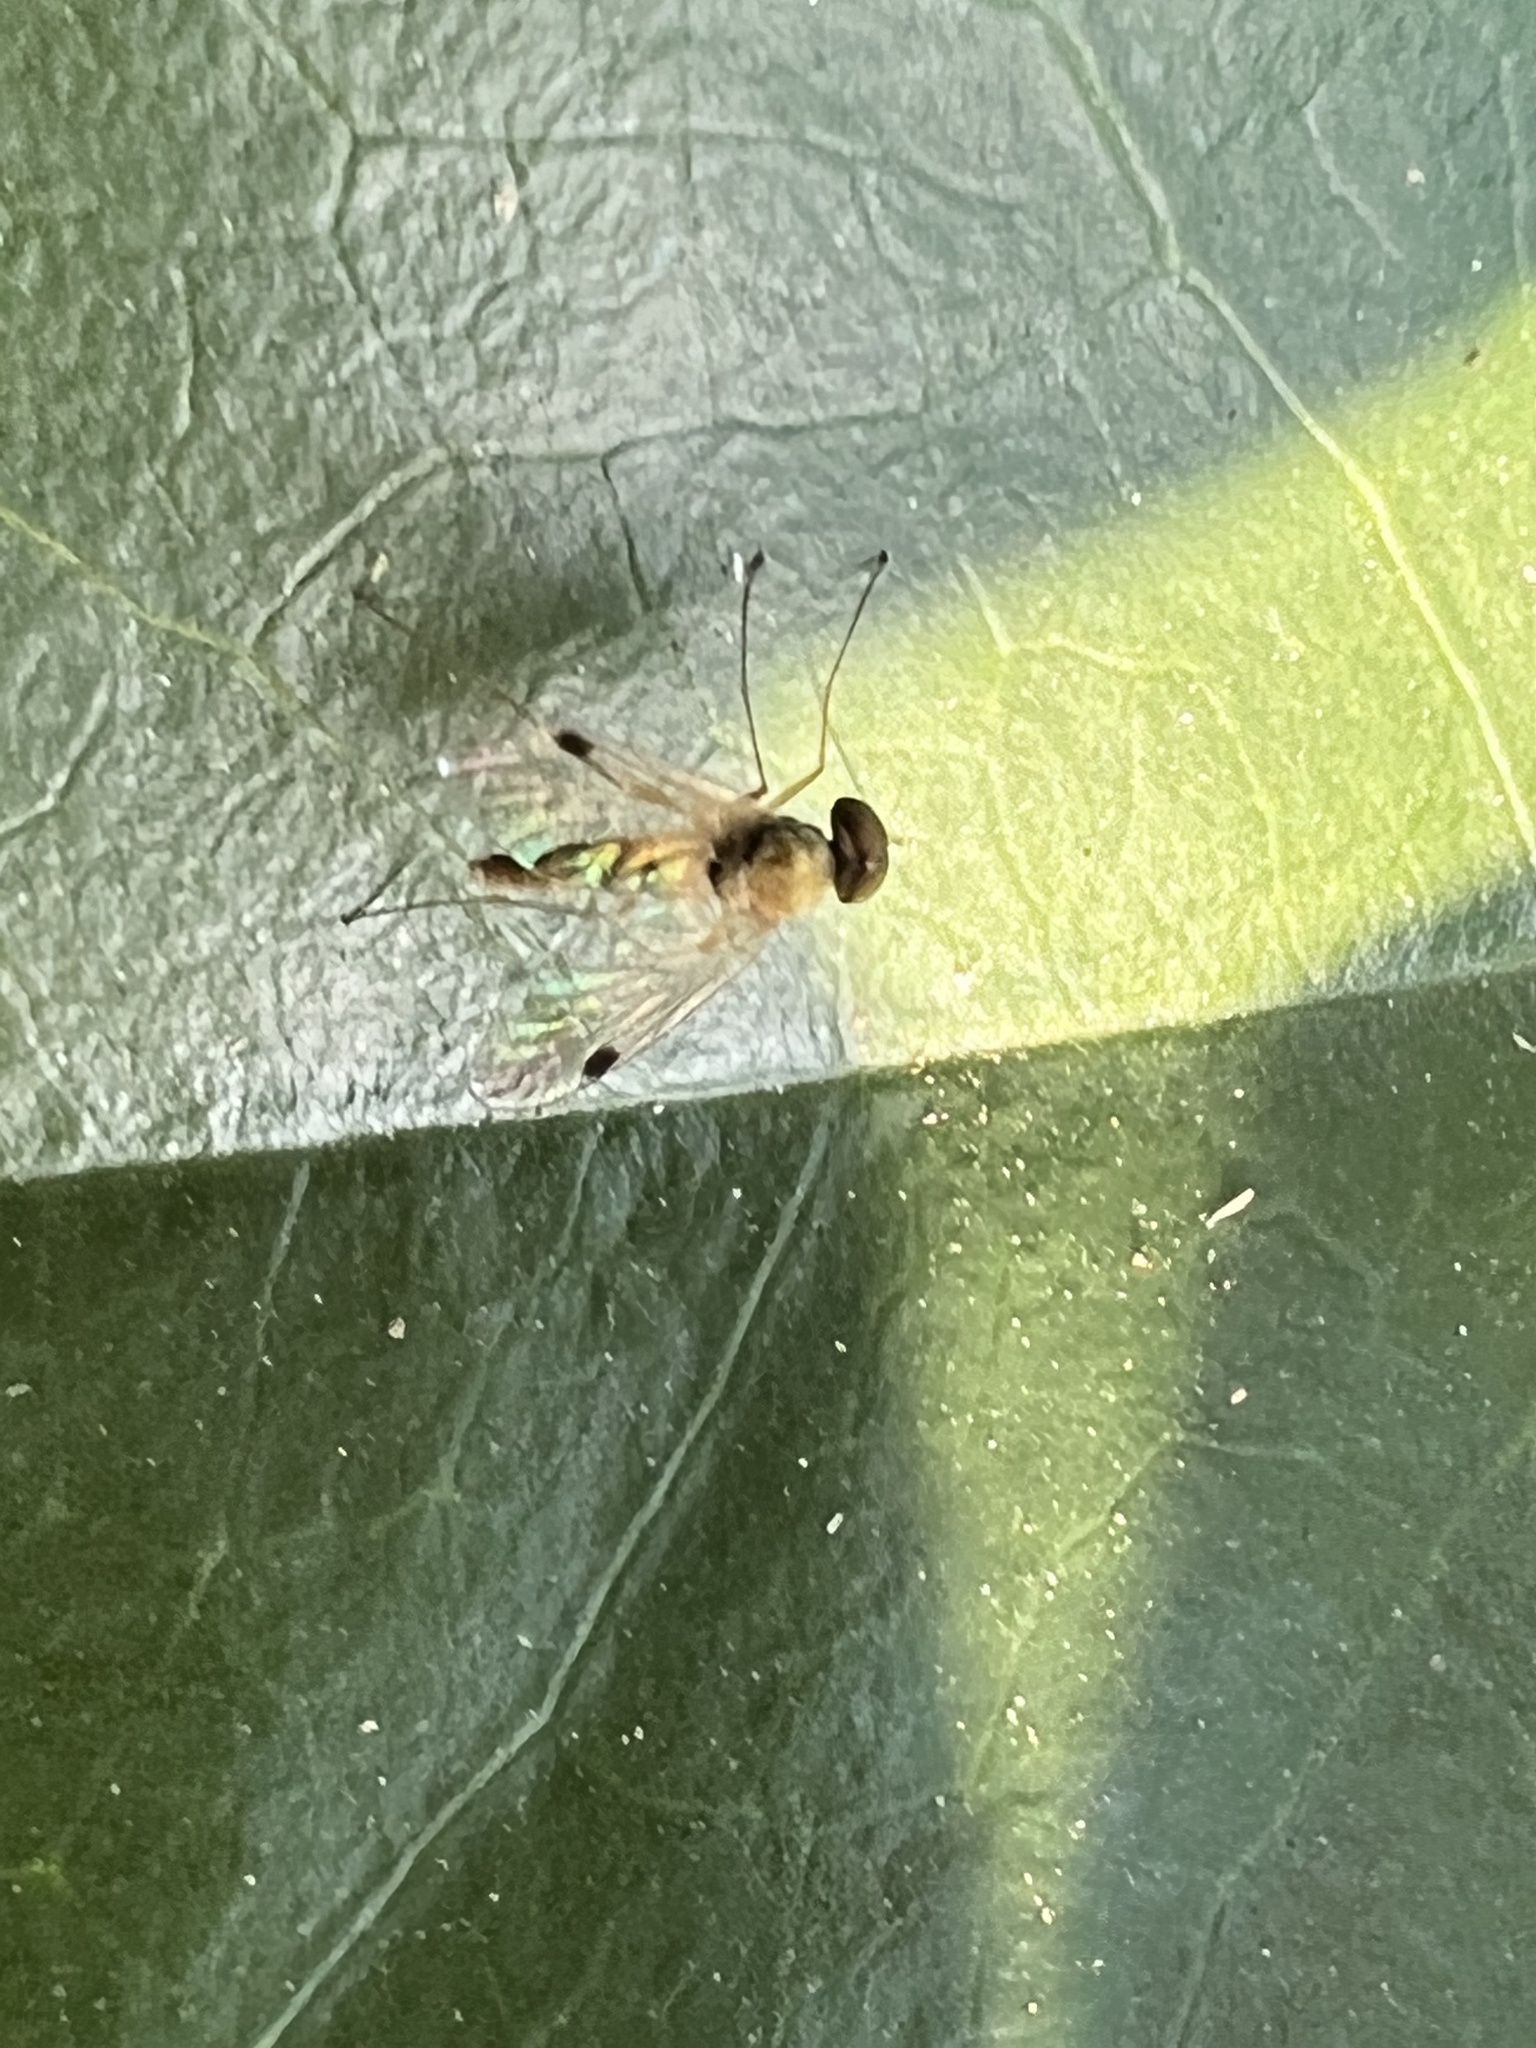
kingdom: Animalia
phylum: Arthropoda
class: Insecta
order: Diptera
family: Rhagionidae
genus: Chrysopilus
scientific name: Chrysopilus modestus
